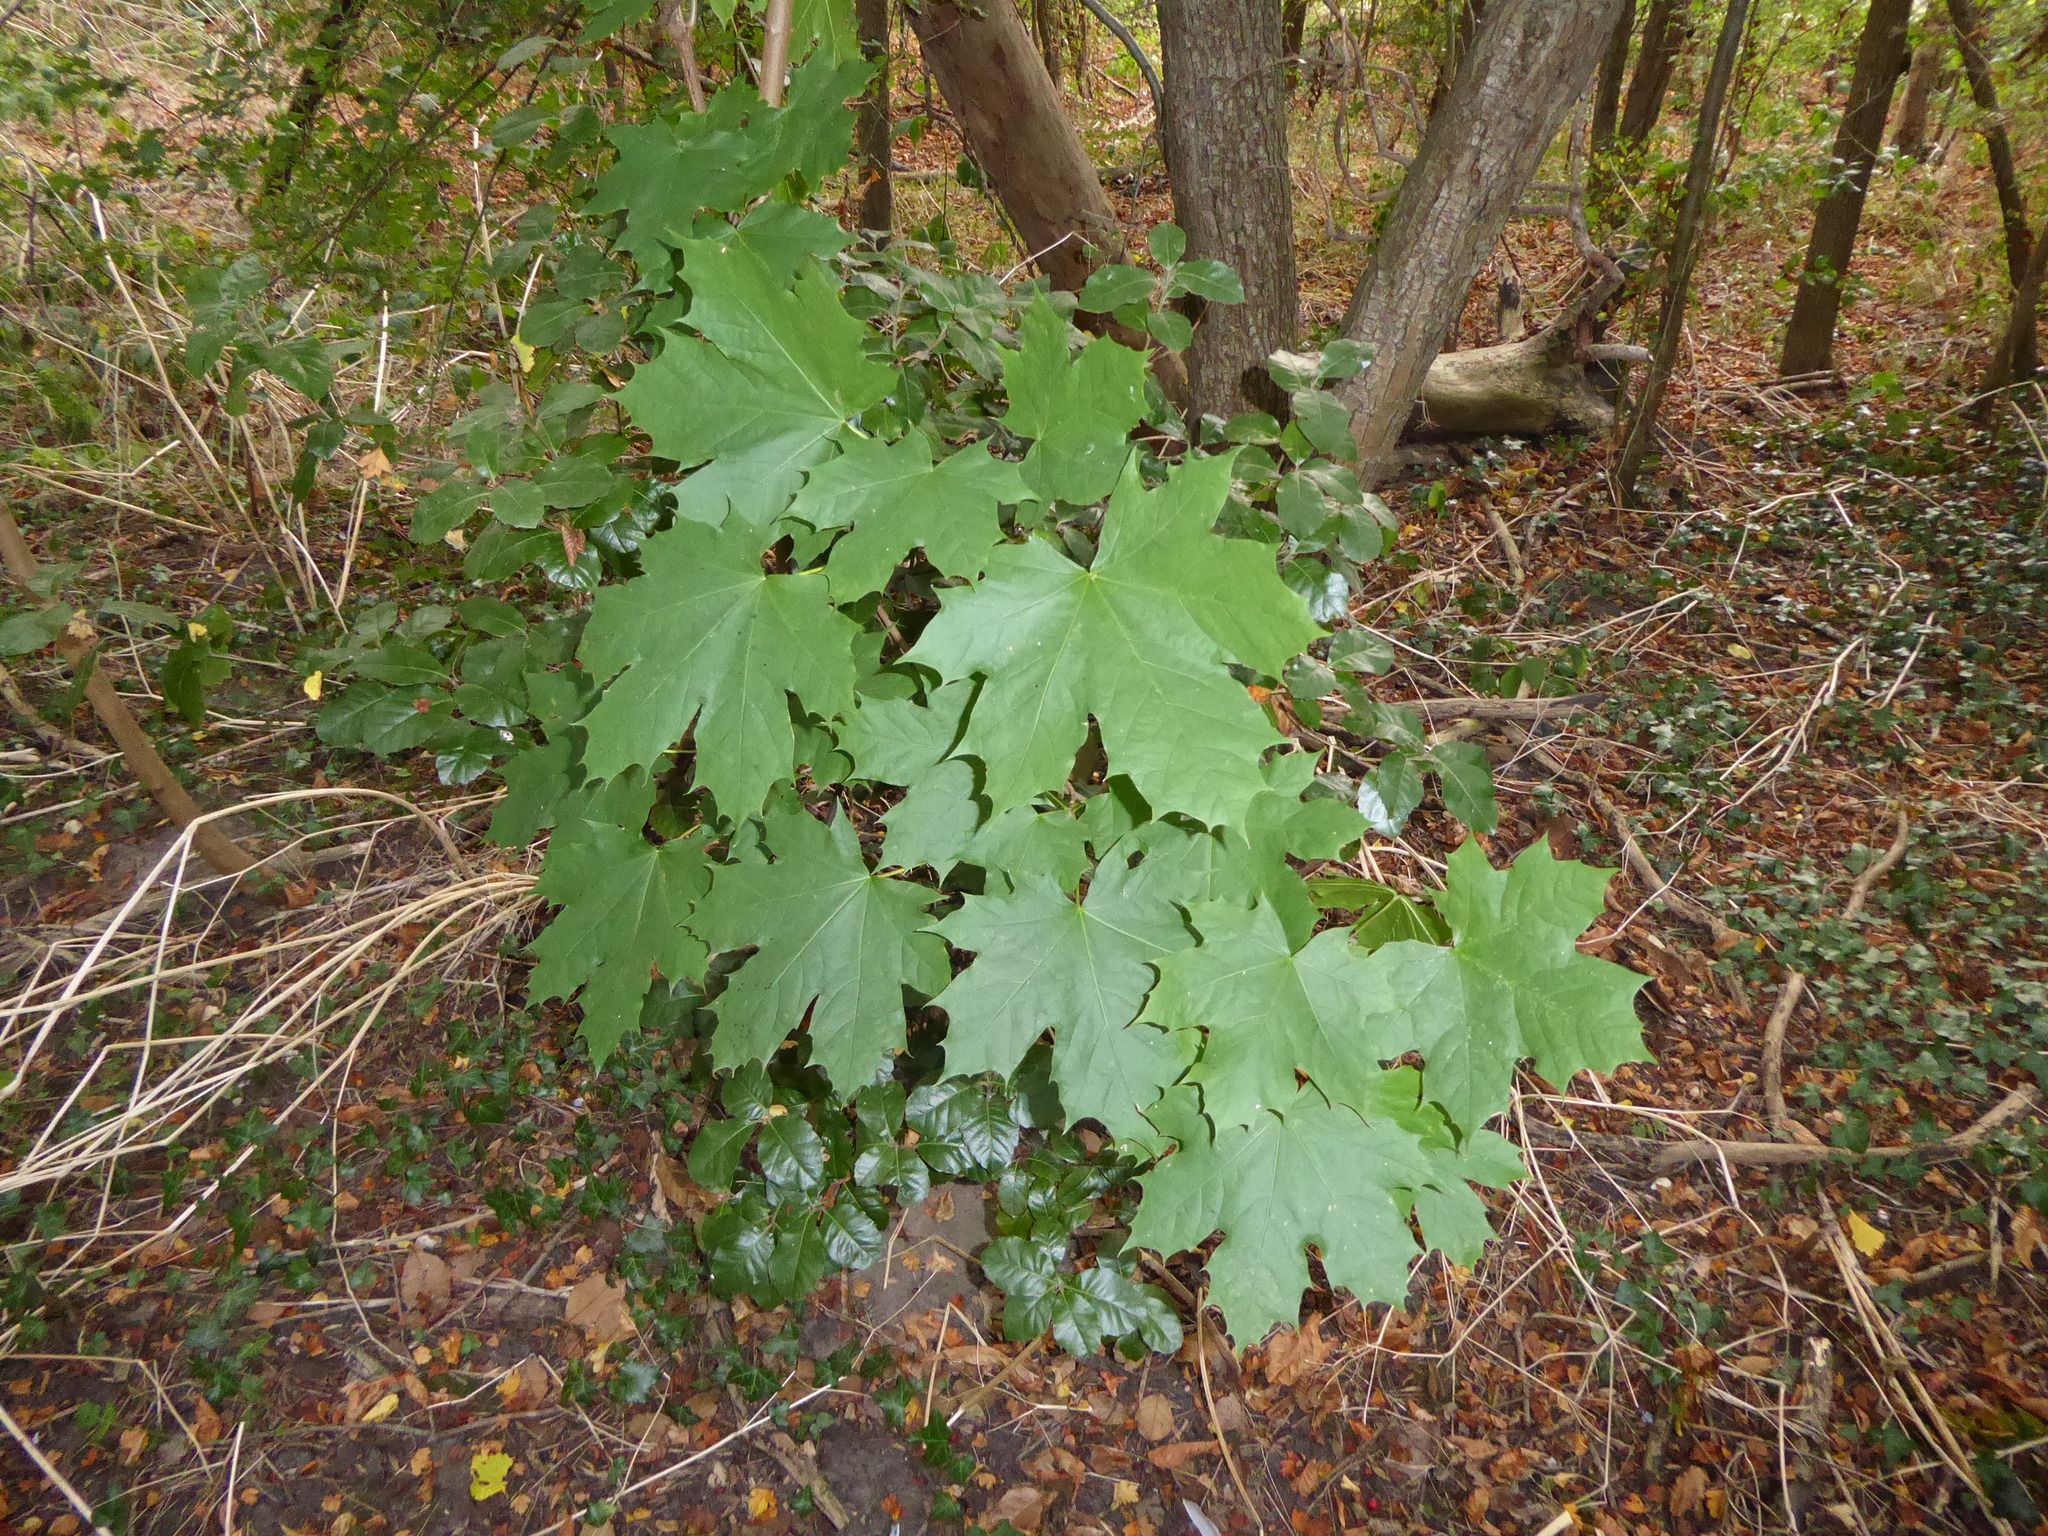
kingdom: Plantae
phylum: Tracheophyta
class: Magnoliopsida
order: Sapindales
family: Sapindaceae
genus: Acer
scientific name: Acer platanoides
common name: Norway maple
